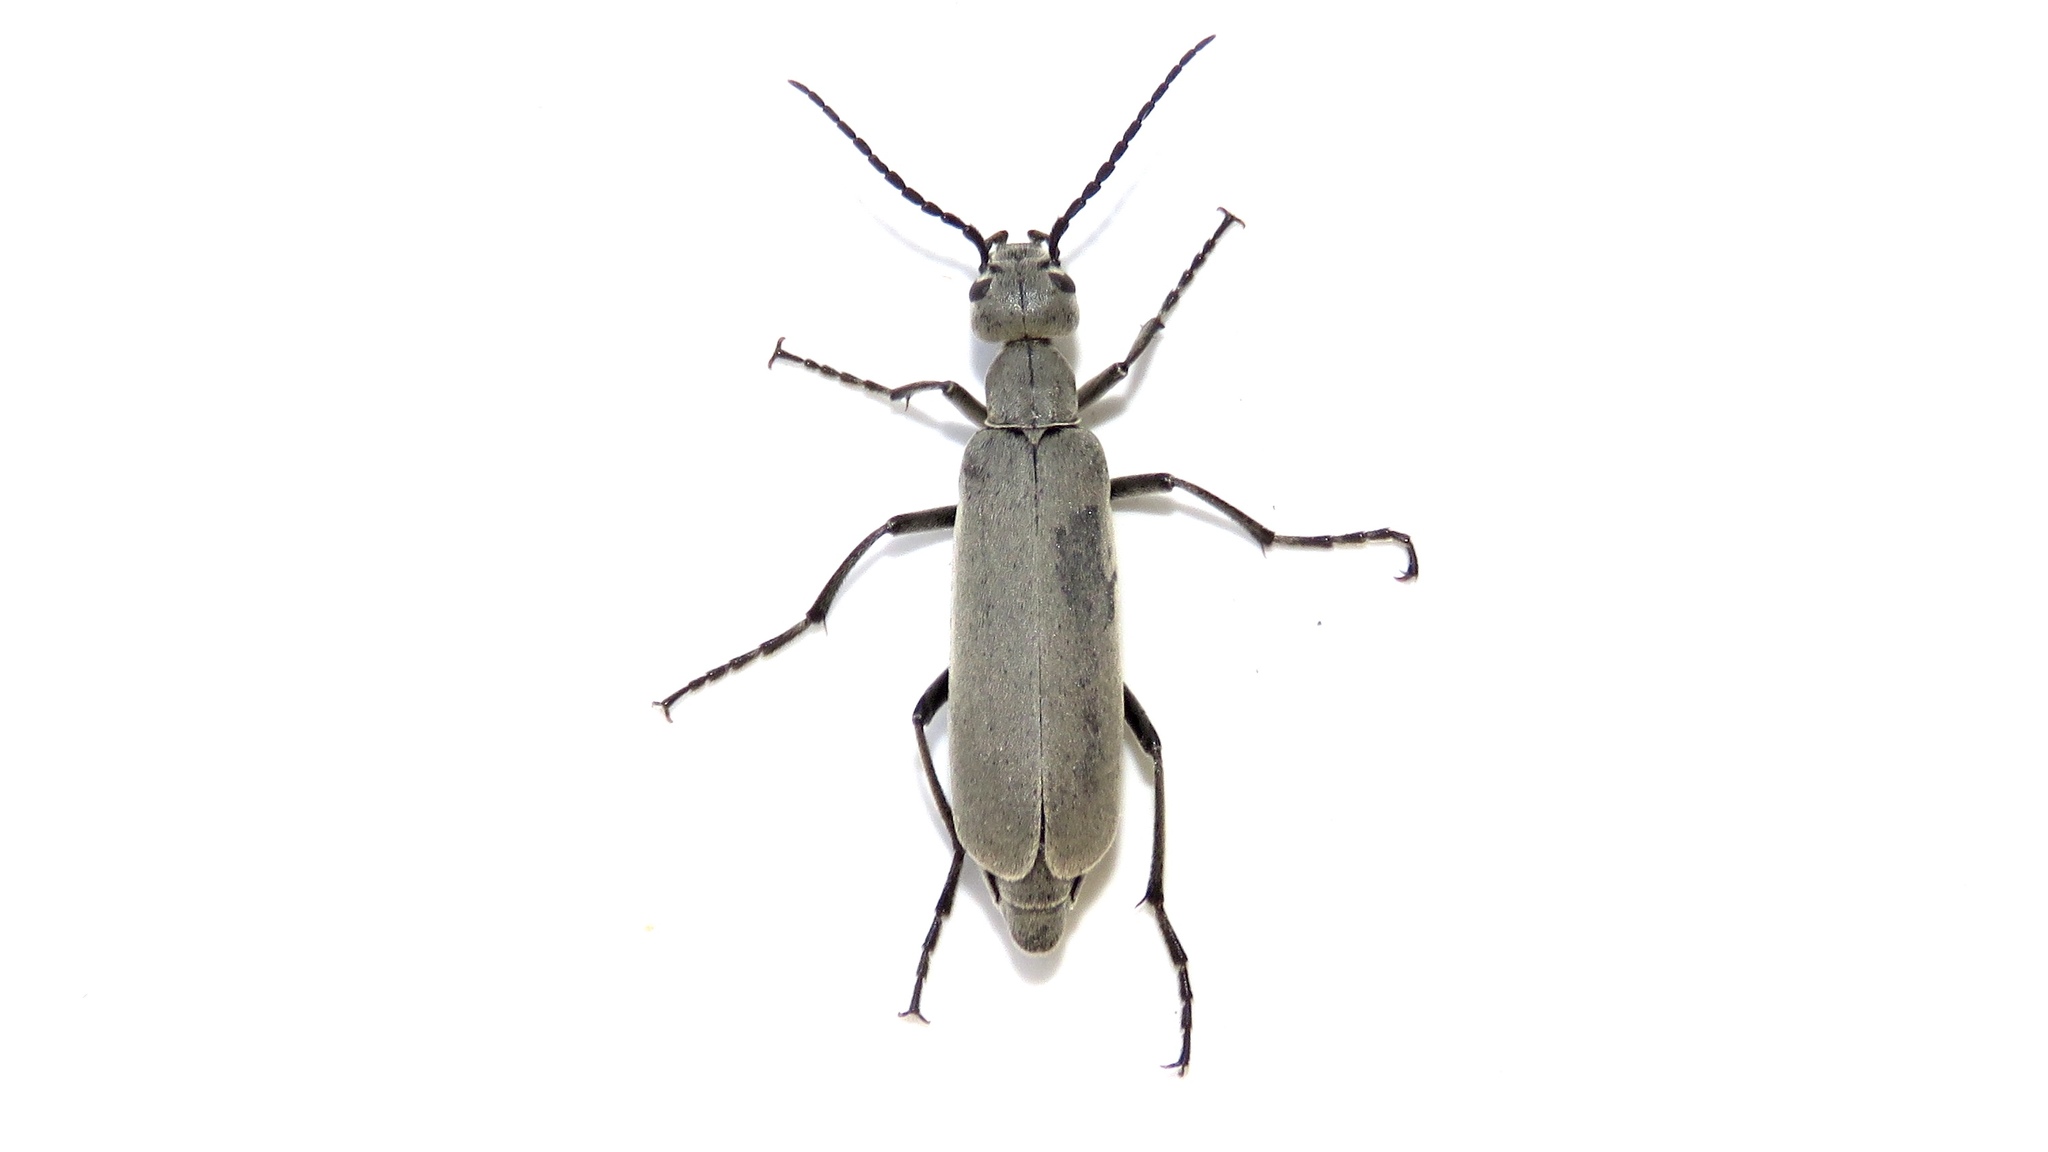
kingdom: Animalia
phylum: Arthropoda
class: Insecta
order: Coleoptera
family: Meloidae
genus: Epicauta
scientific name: Epicauta fabricii
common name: Ashgray blister beetle
